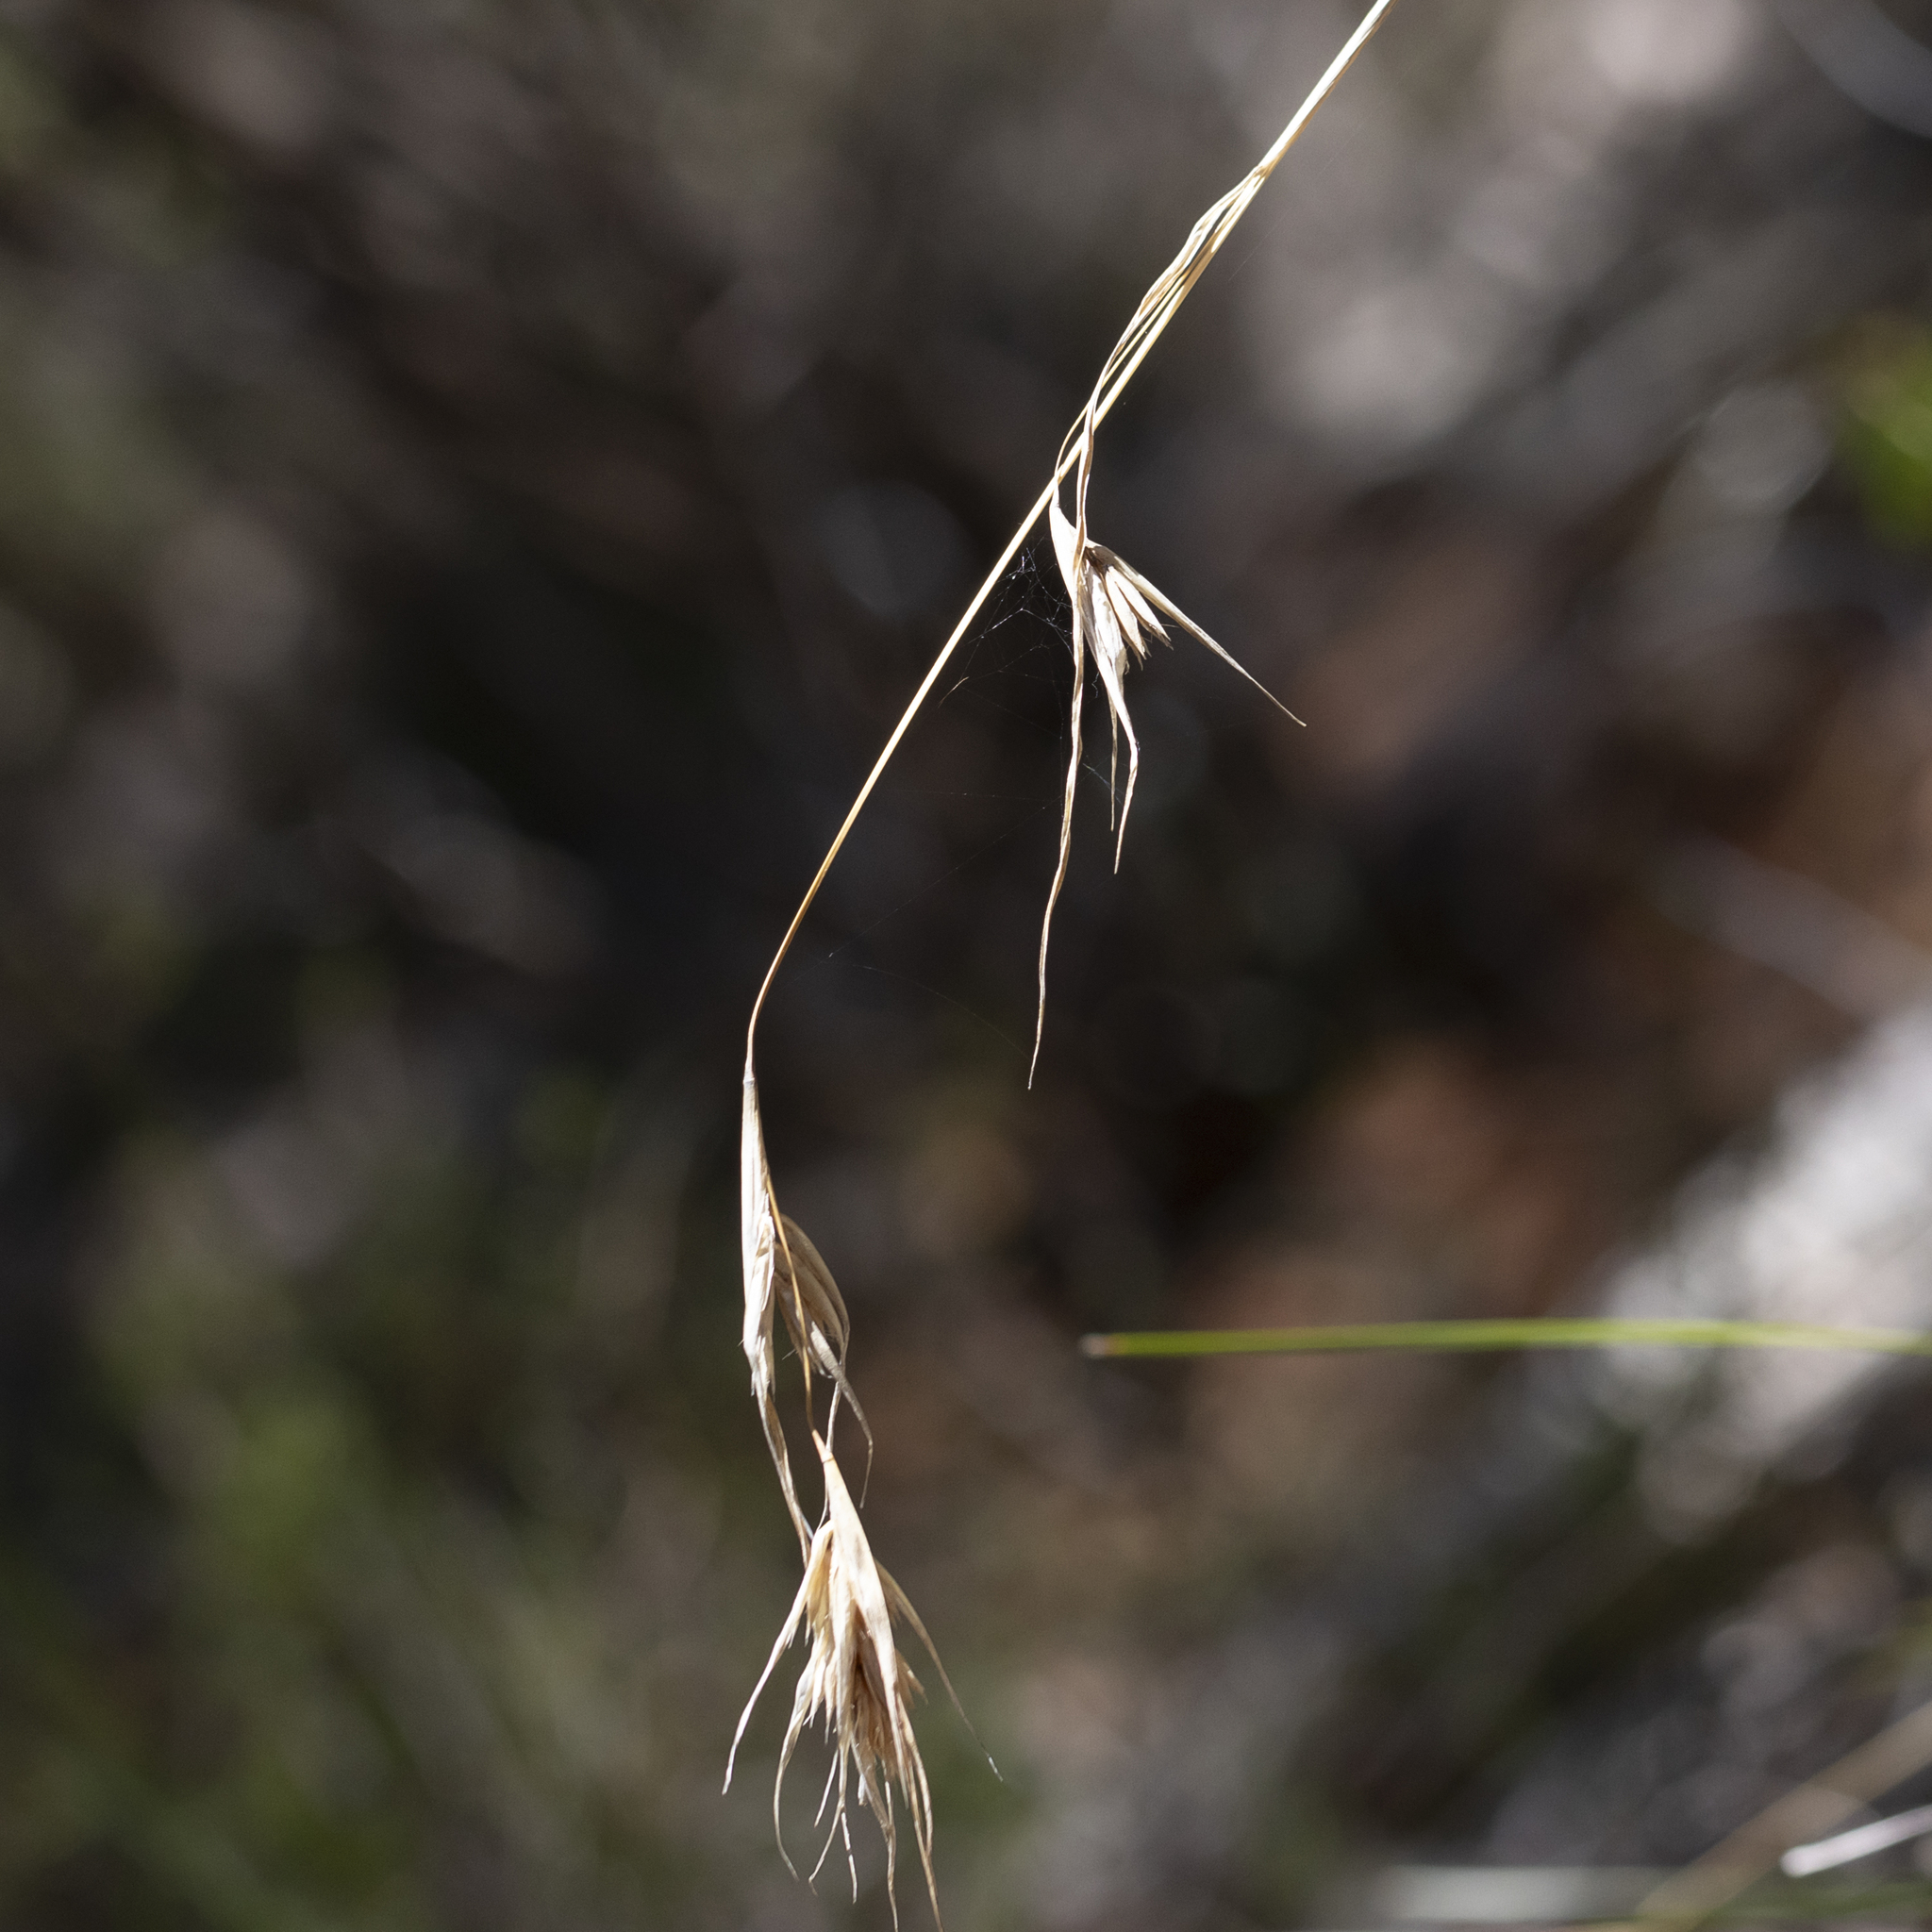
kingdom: Plantae
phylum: Tracheophyta
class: Liliopsida
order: Poales
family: Poaceae
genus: Themeda
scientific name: Themeda triandra
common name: Kangaroo grass
